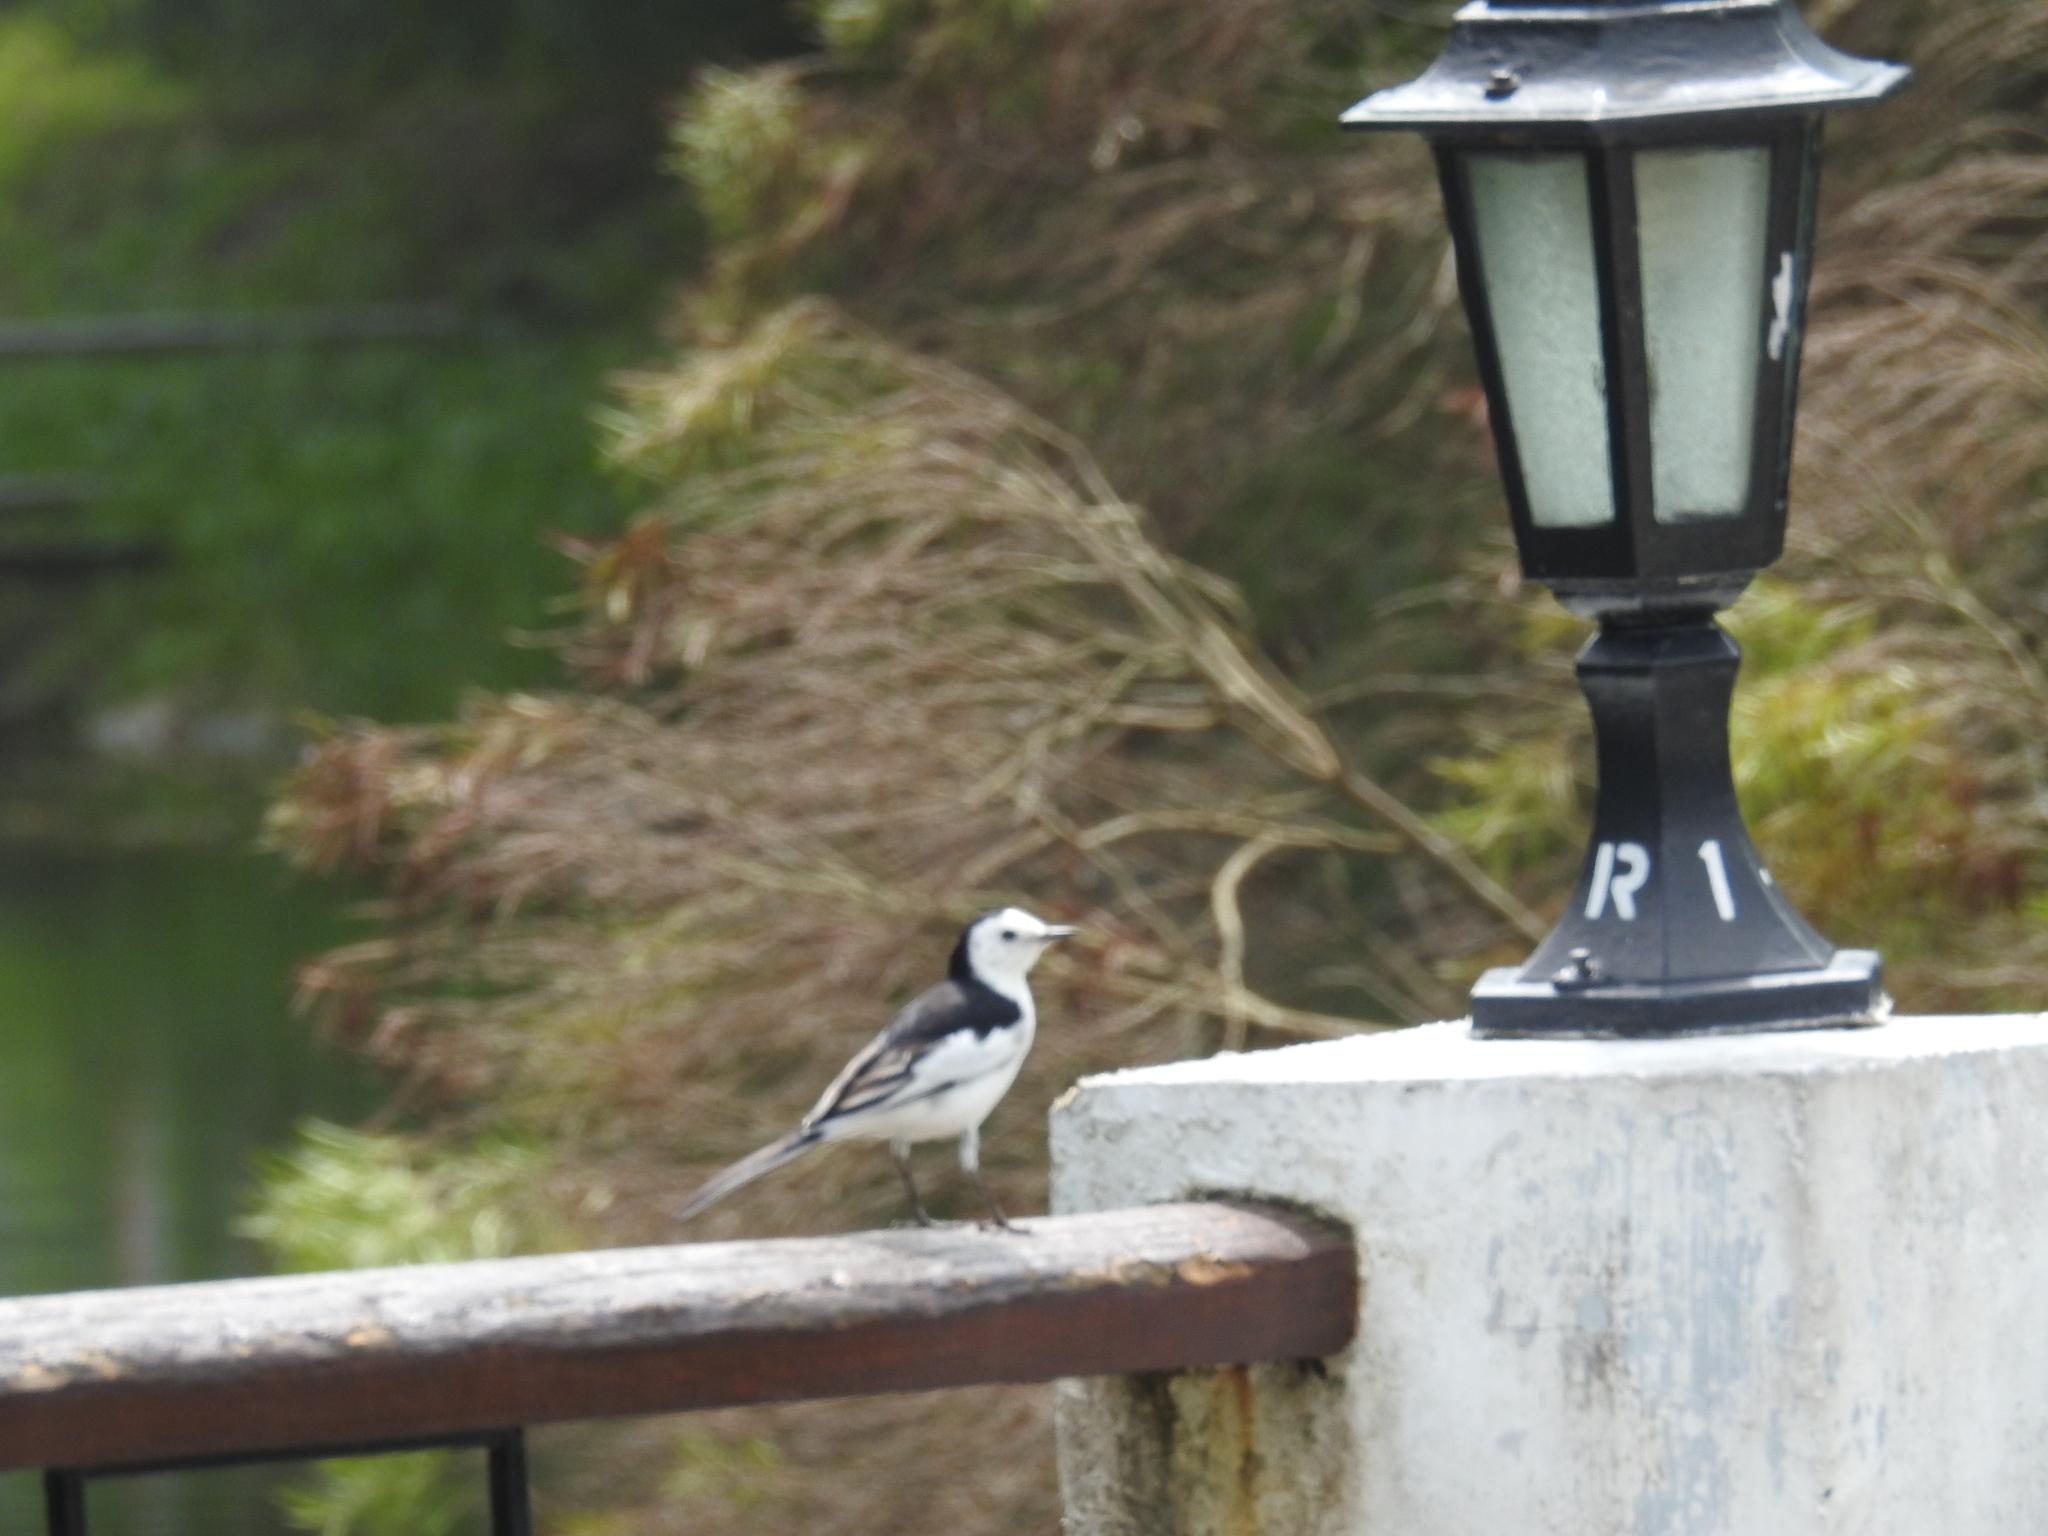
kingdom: Animalia
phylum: Chordata
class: Aves
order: Passeriformes
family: Motacillidae
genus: Motacilla
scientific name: Motacilla alba
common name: White wagtail
